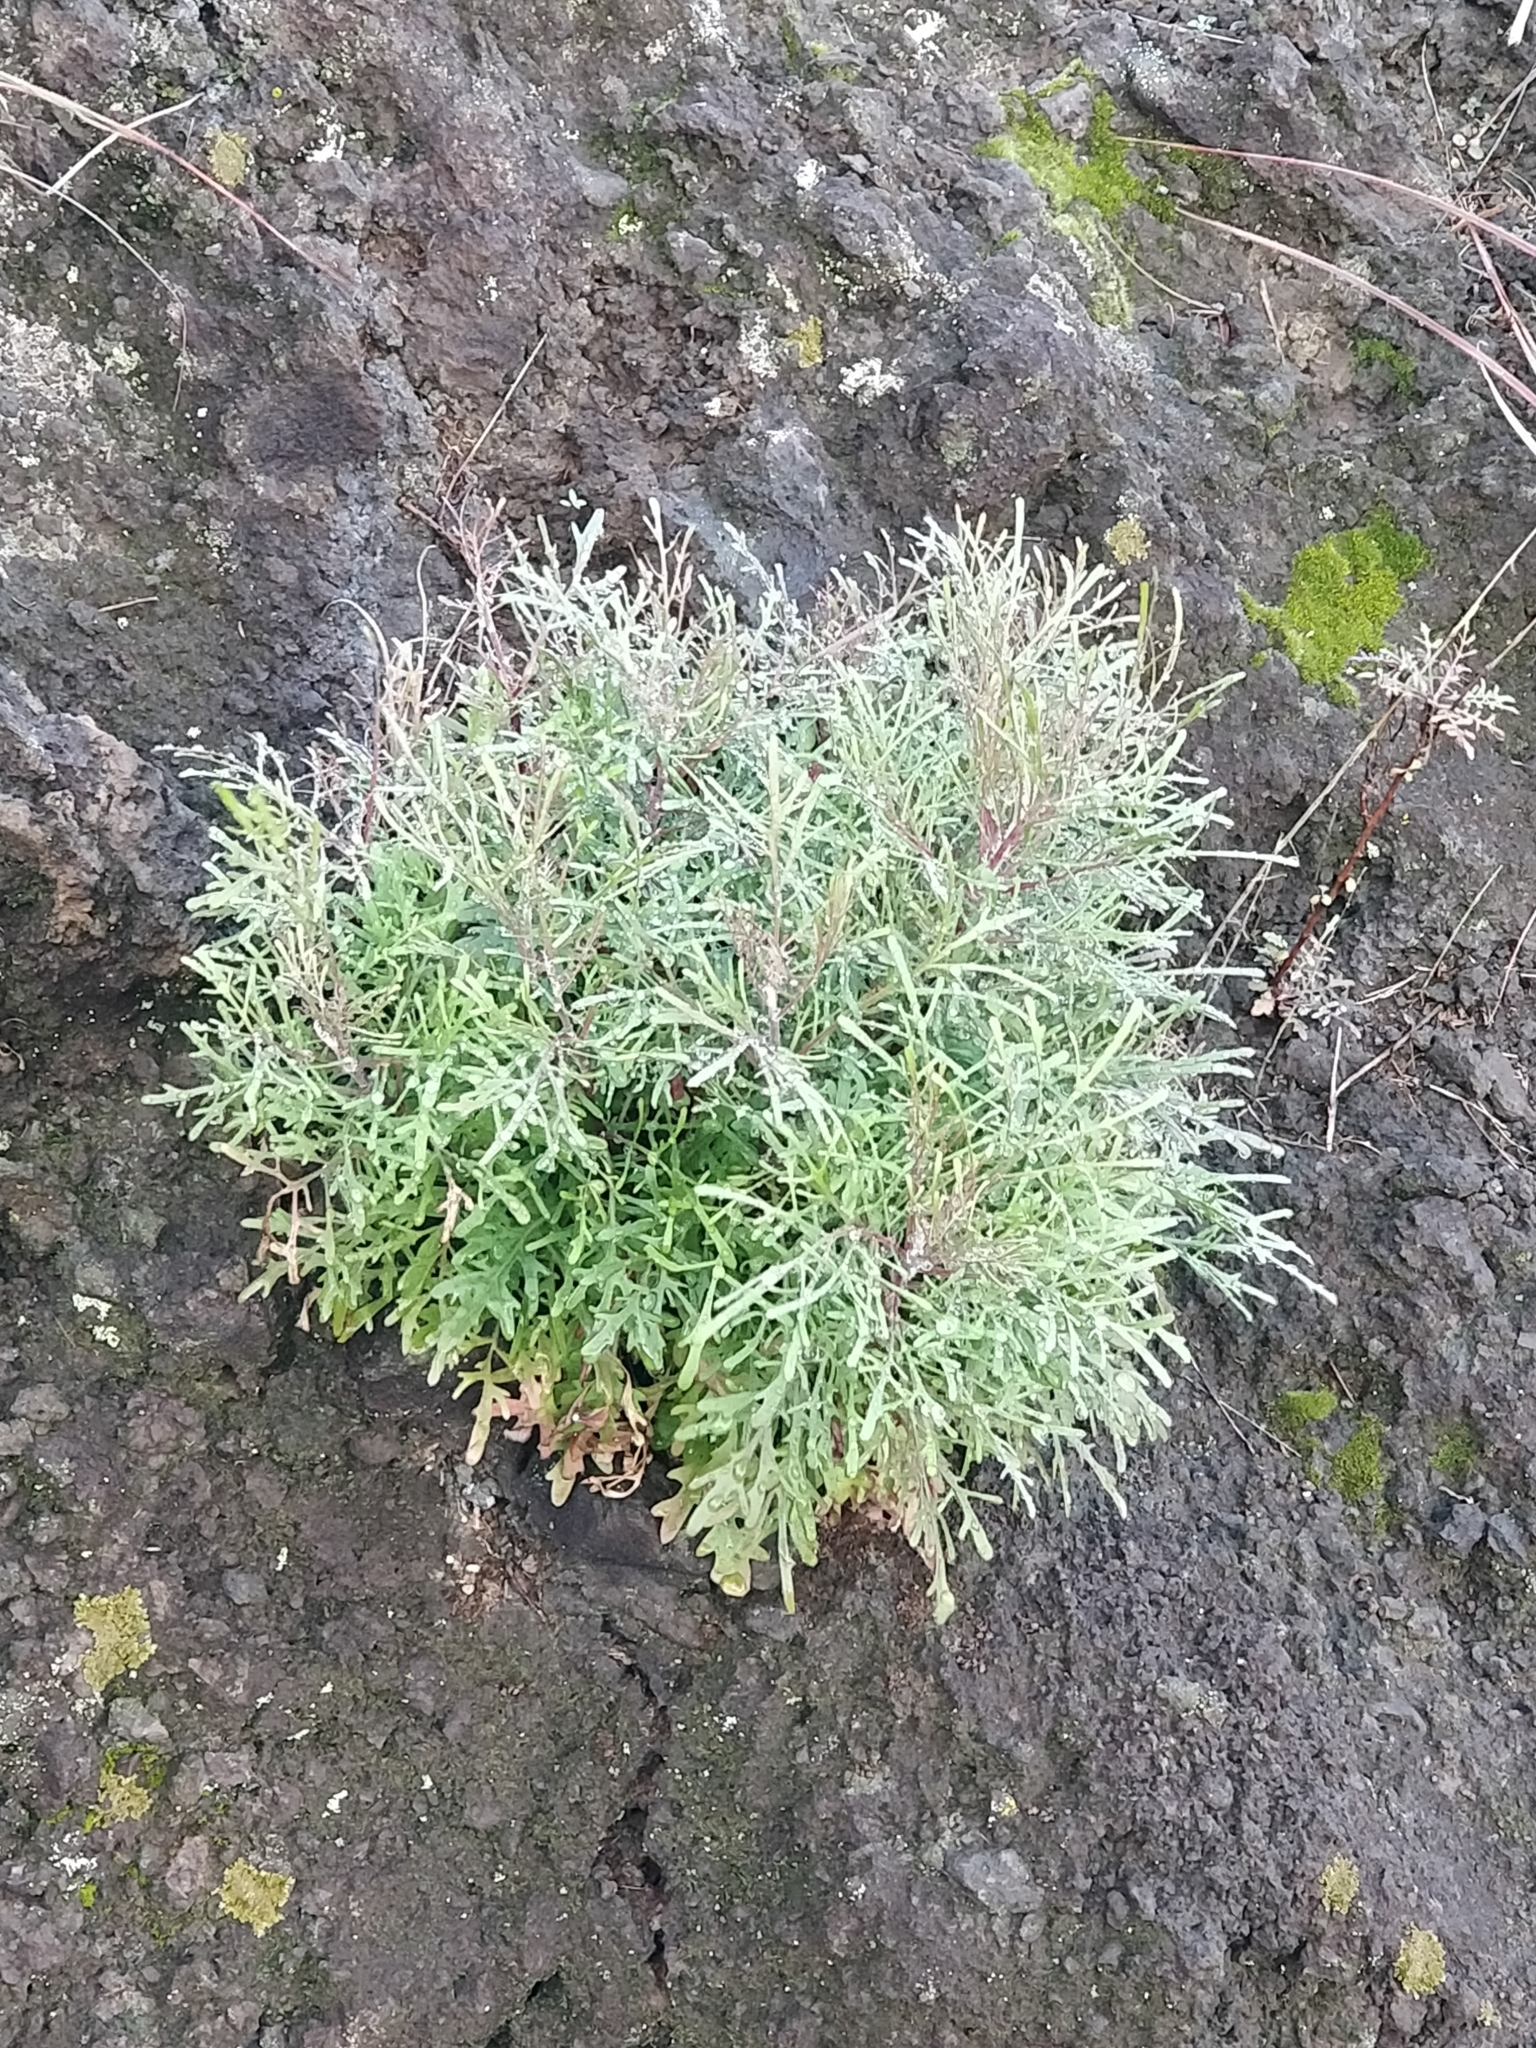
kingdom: Plantae
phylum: Tracheophyta
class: Magnoliopsida
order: Asterales
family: Asteraceae
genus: Tolpis
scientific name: Tolpis succulenta
